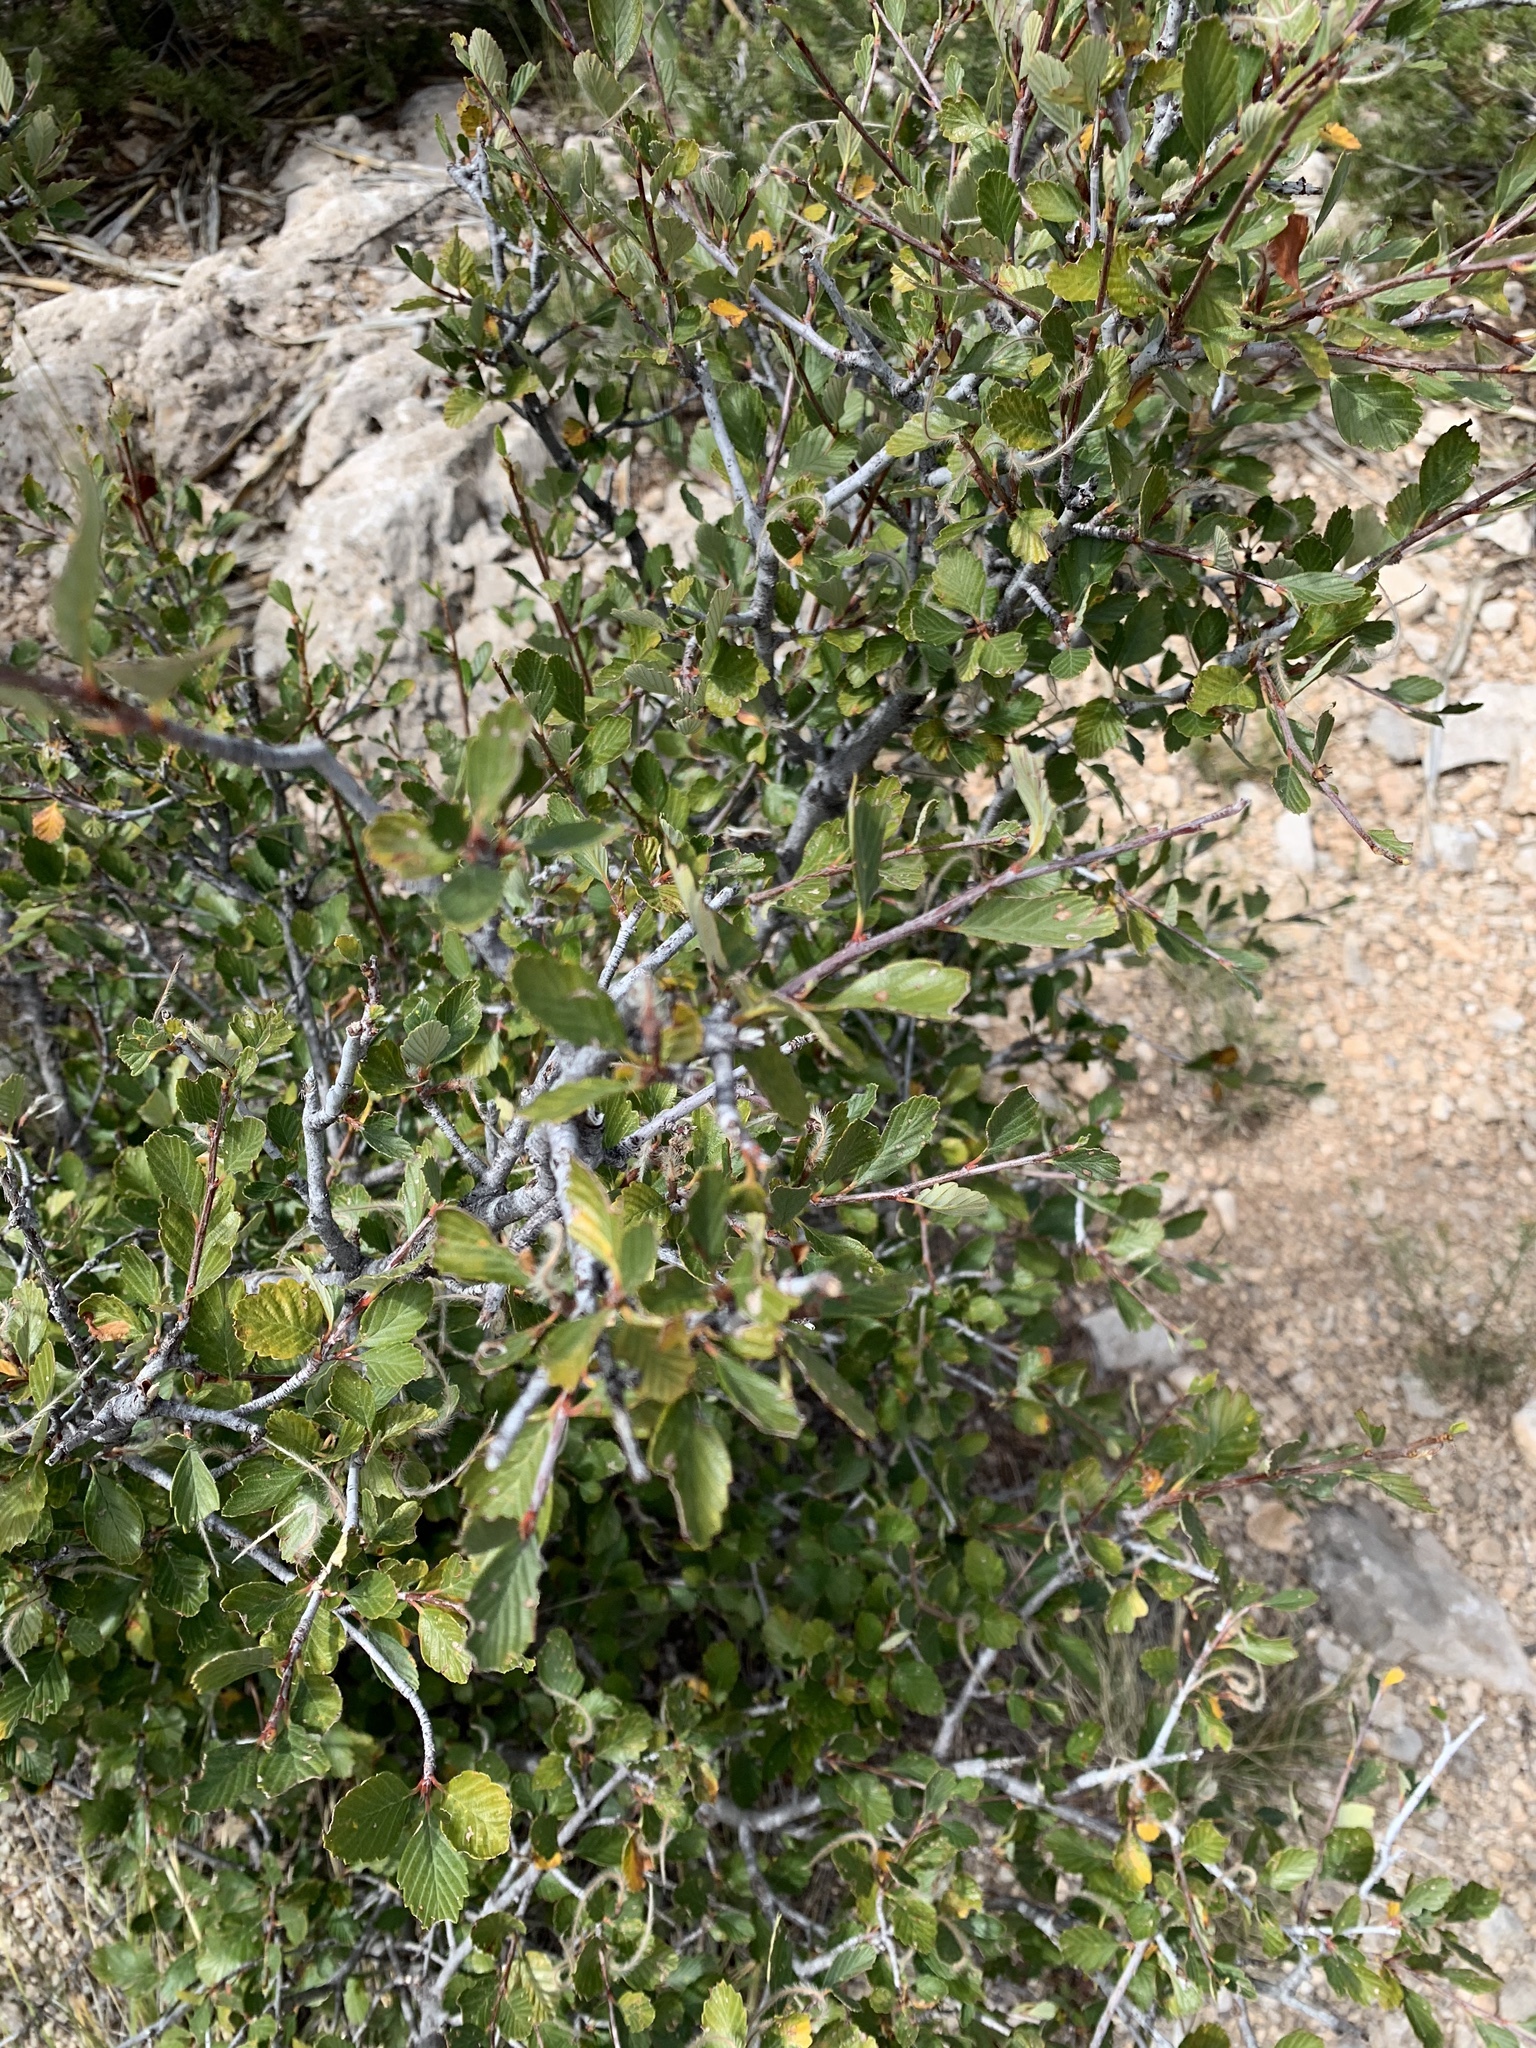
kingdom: Plantae
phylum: Tracheophyta
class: Magnoliopsida
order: Rosales
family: Rosaceae
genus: Cercocarpus
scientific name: Cercocarpus montanus
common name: Alder-leaf cercocarpus
